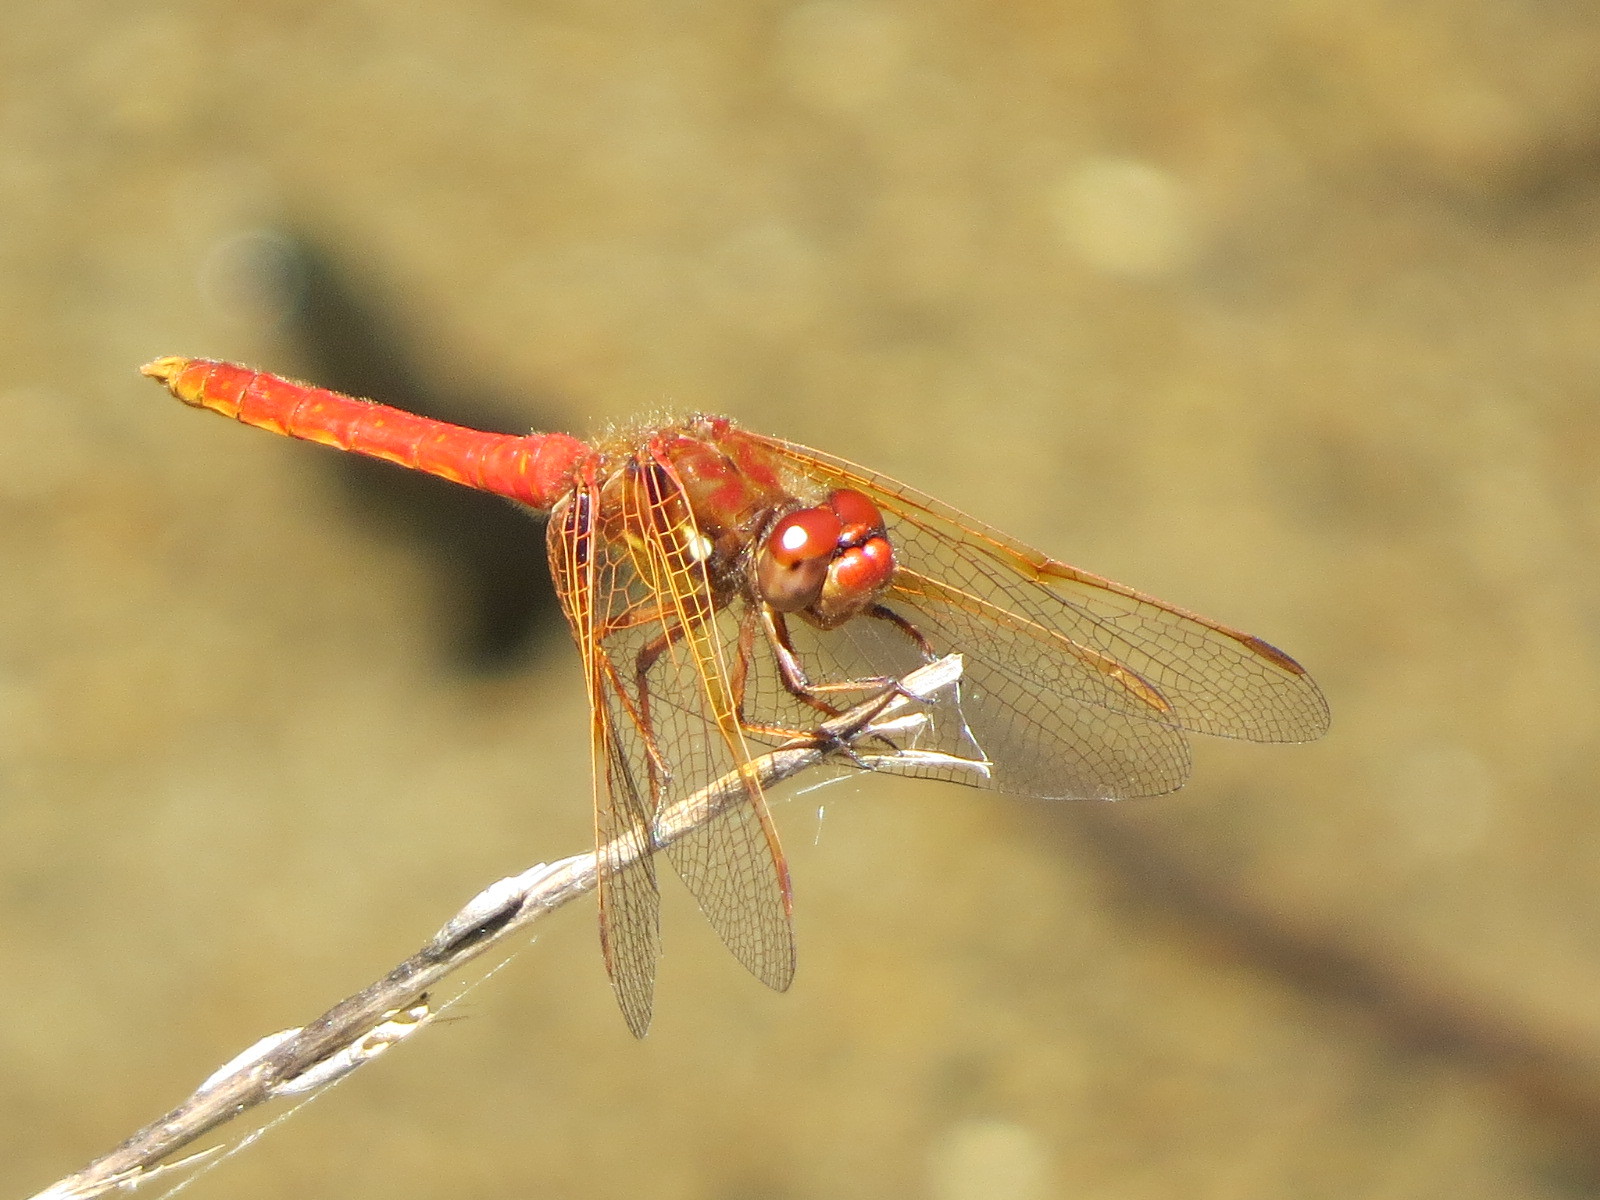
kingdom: Animalia
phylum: Arthropoda
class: Insecta
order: Odonata
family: Libellulidae
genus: Sympetrum
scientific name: Sympetrum illotum
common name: Cardinal meadowhawk
